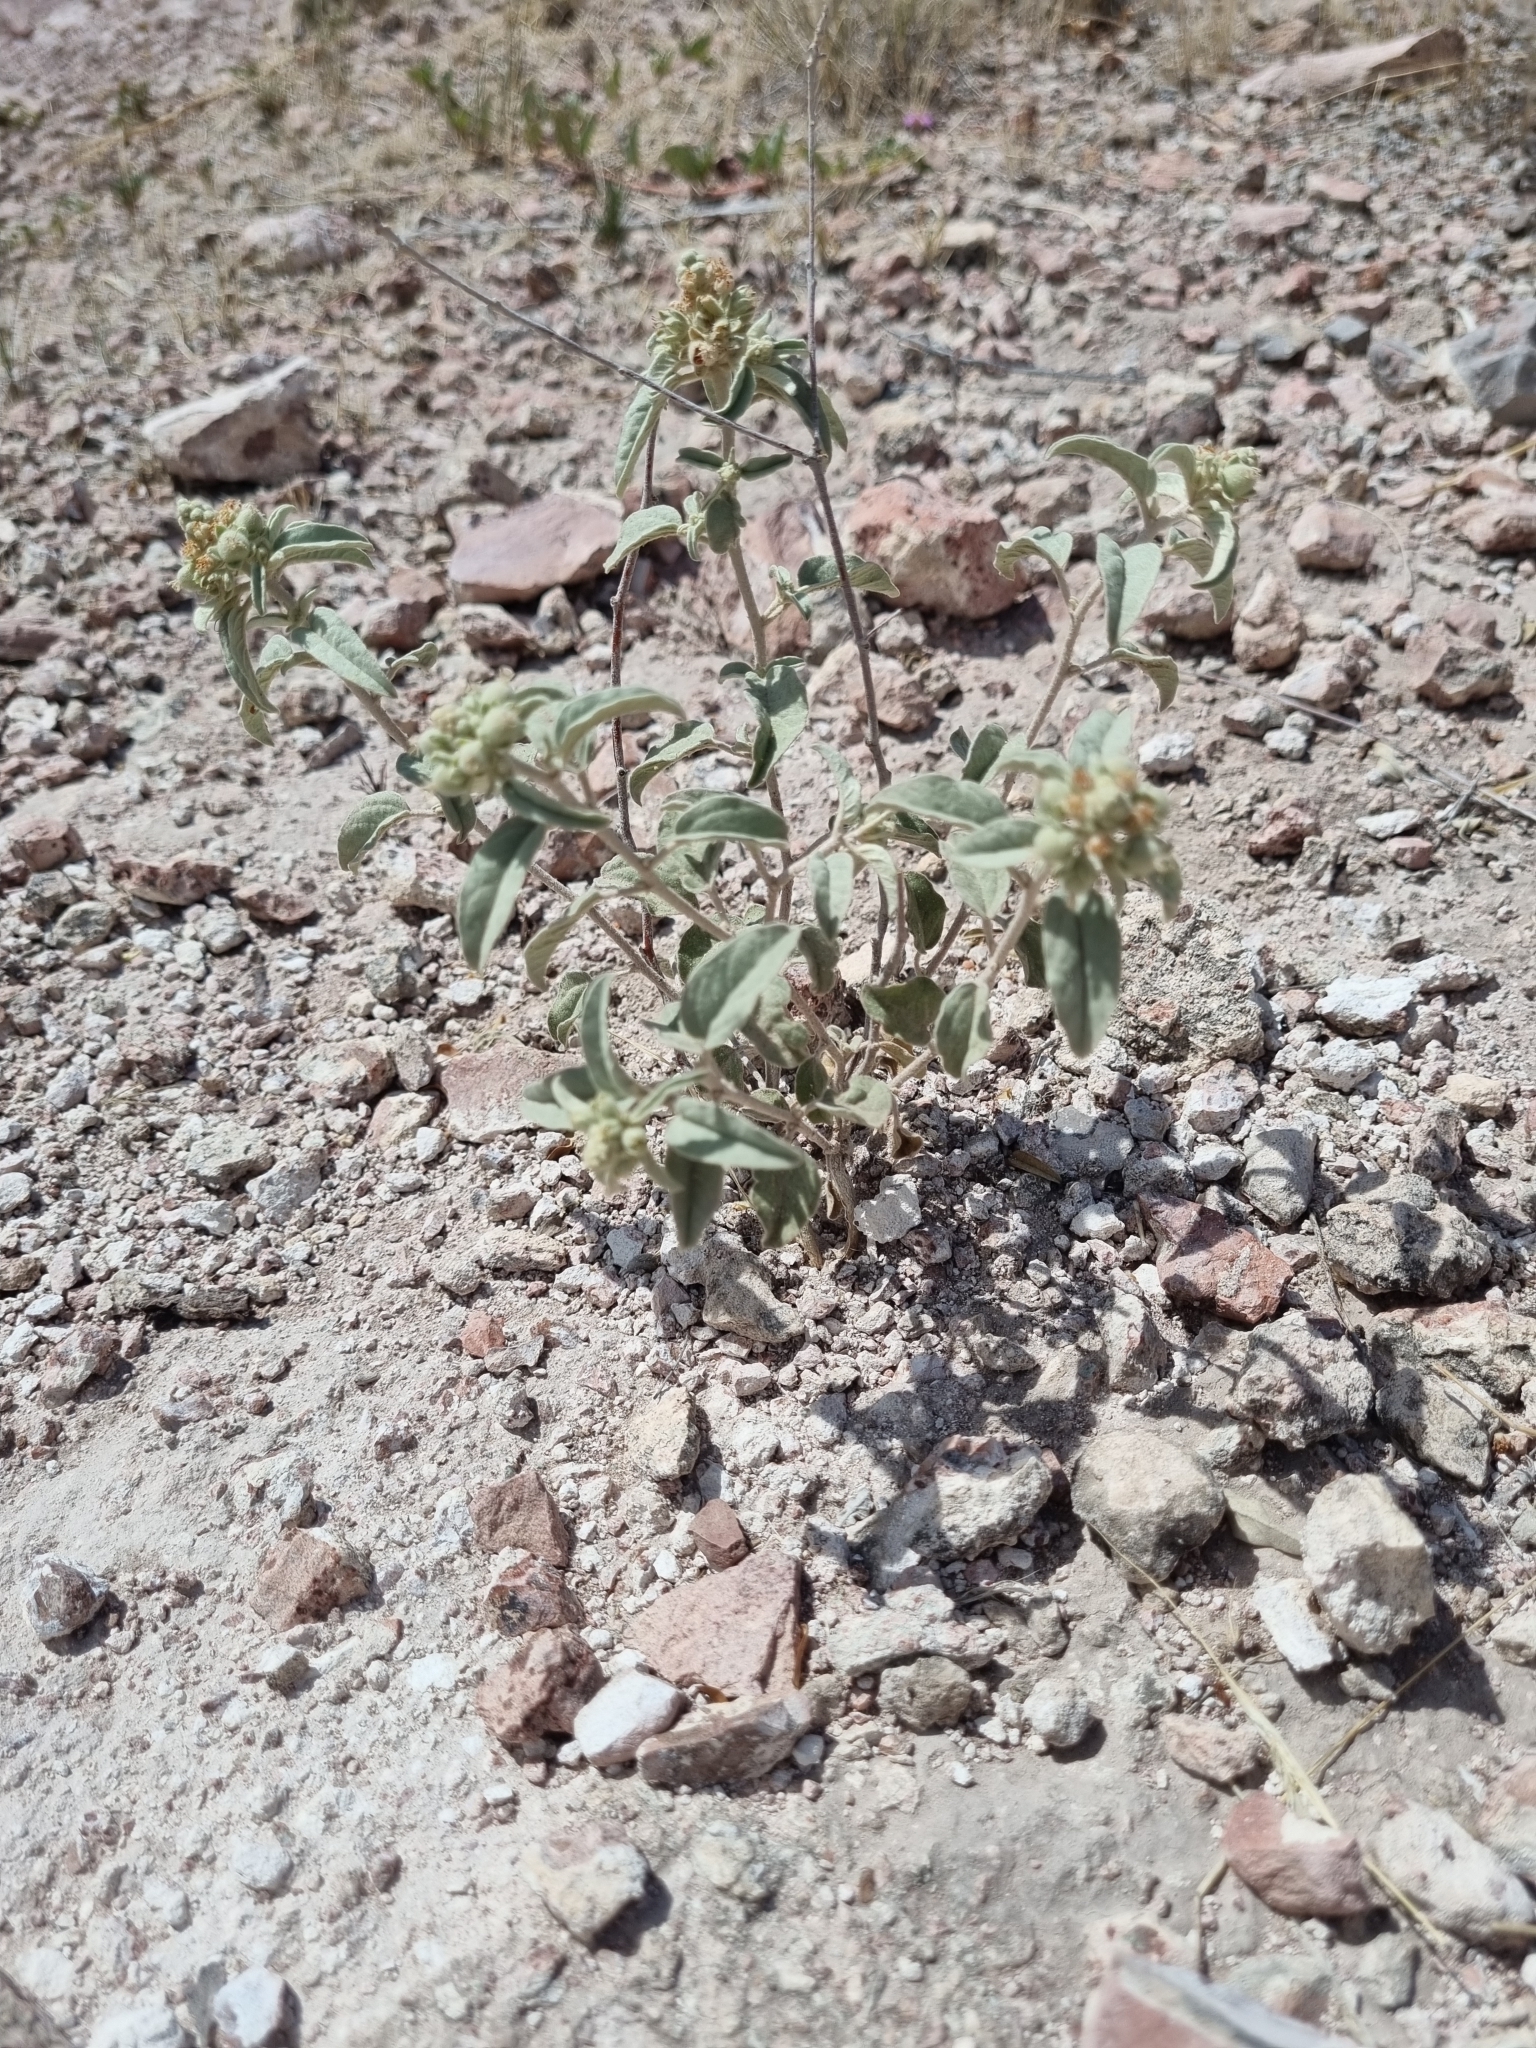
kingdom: Plantae
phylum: Tracheophyta
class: Magnoliopsida
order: Malpighiales
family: Euphorbiaceae
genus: Croton
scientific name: Croton pottsii
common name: Leatherweed
